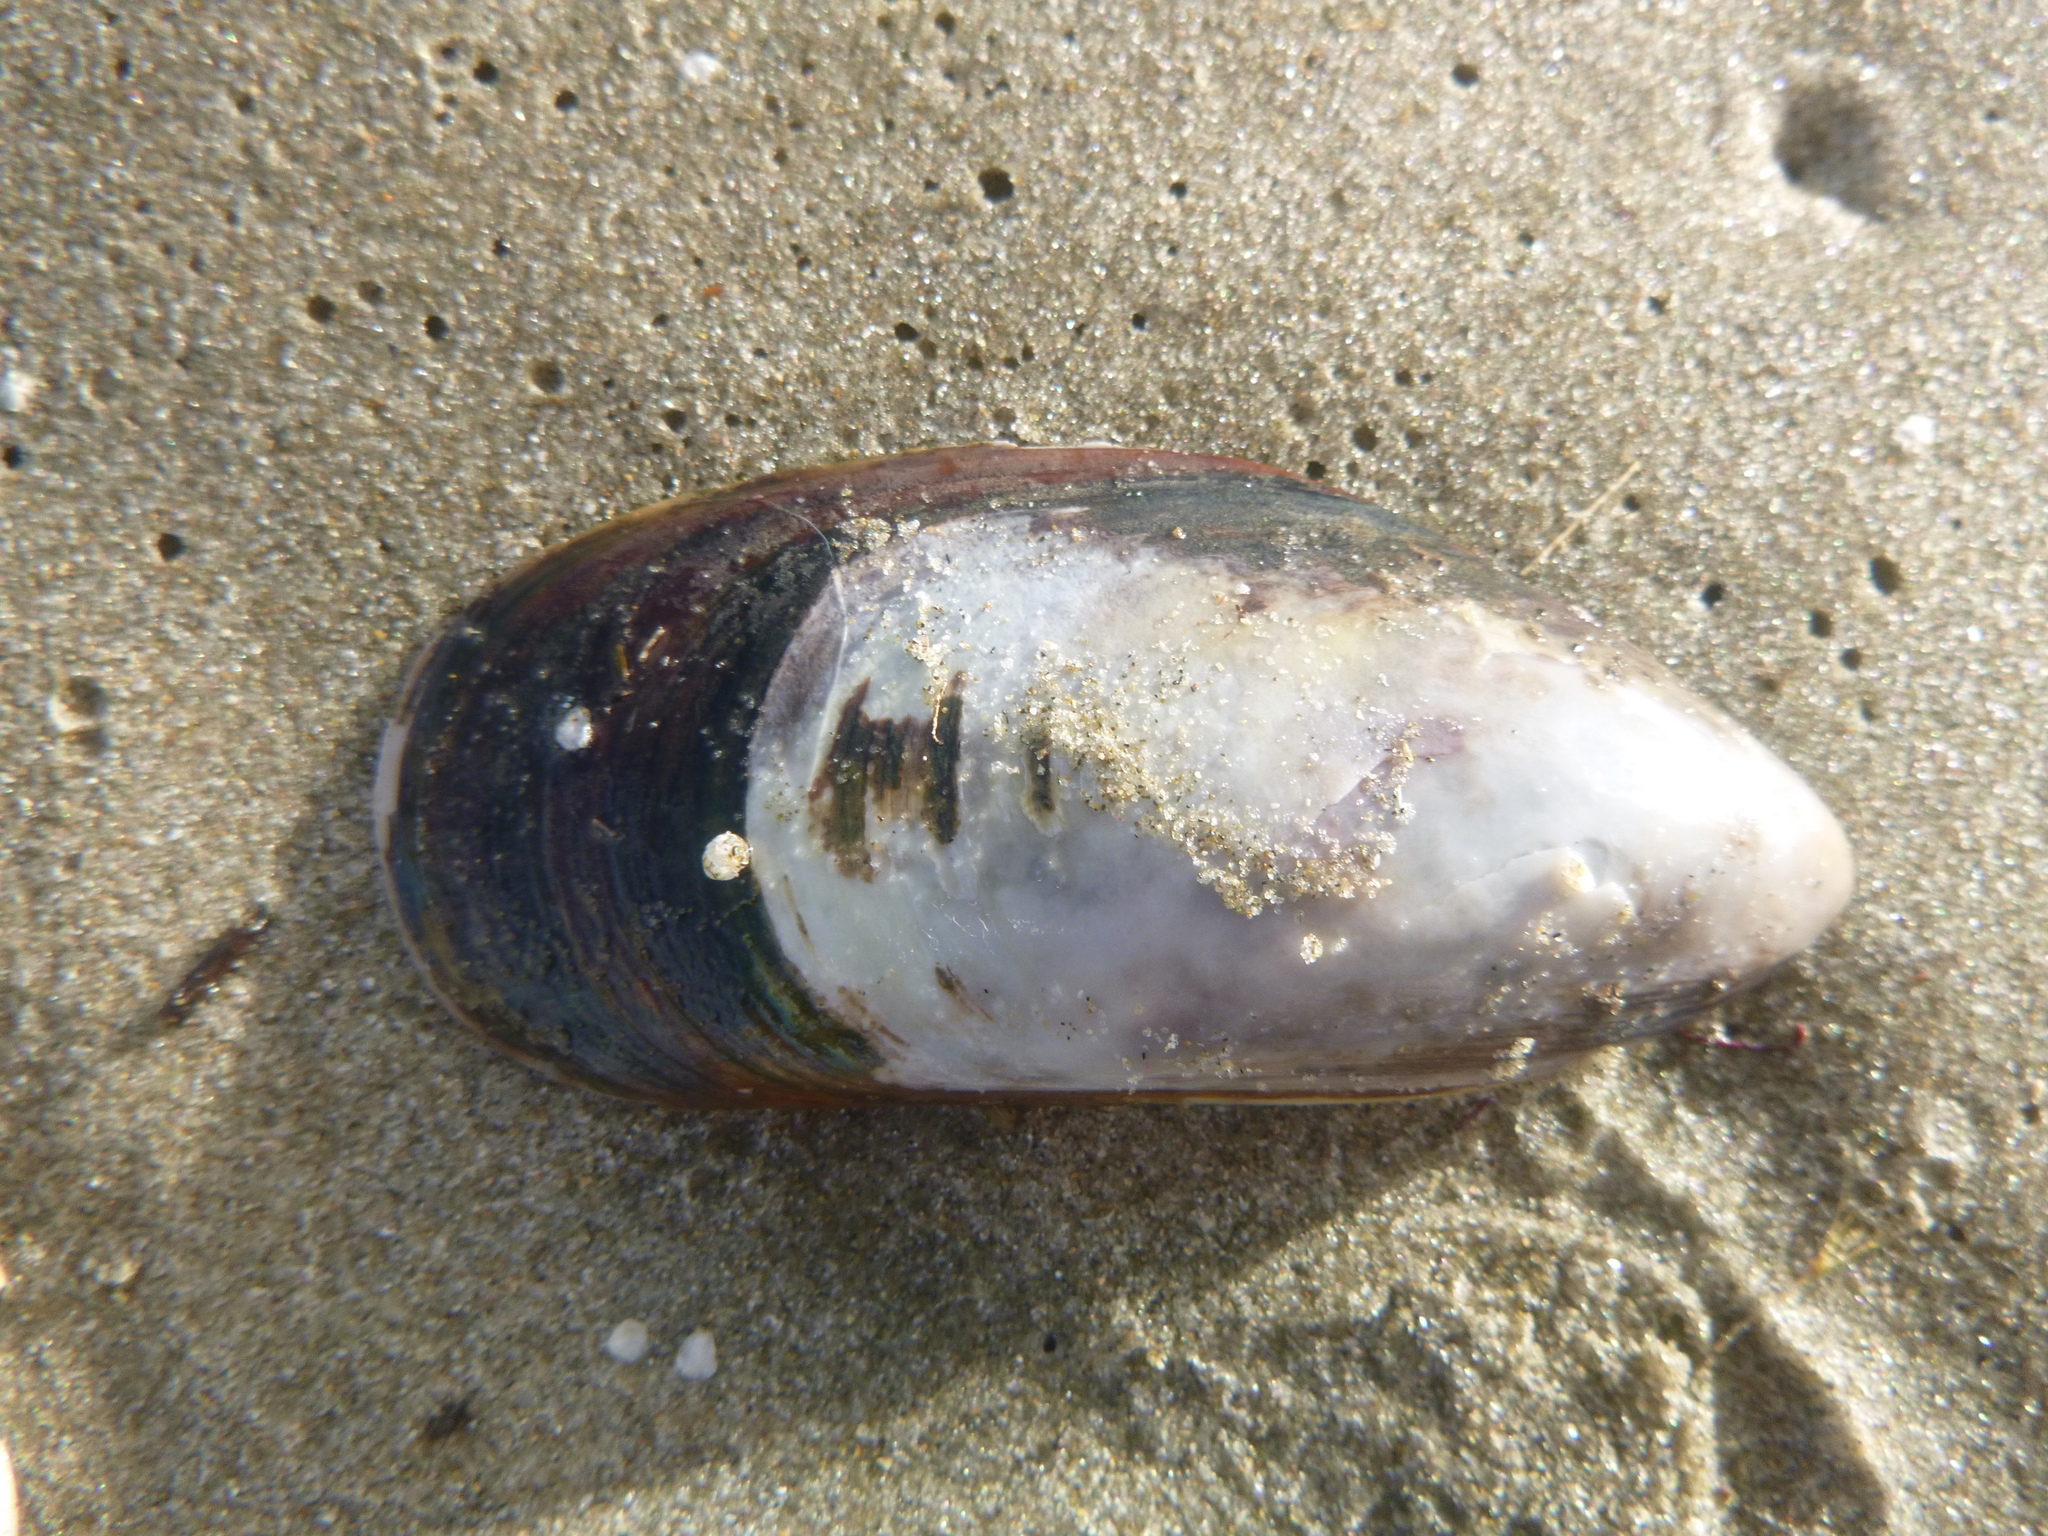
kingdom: Animalia
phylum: Mollusca
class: Bivalvia
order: Mytilida
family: Mytilidae
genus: Perna
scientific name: Perna canaliculus
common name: New zealand greenshelltm
